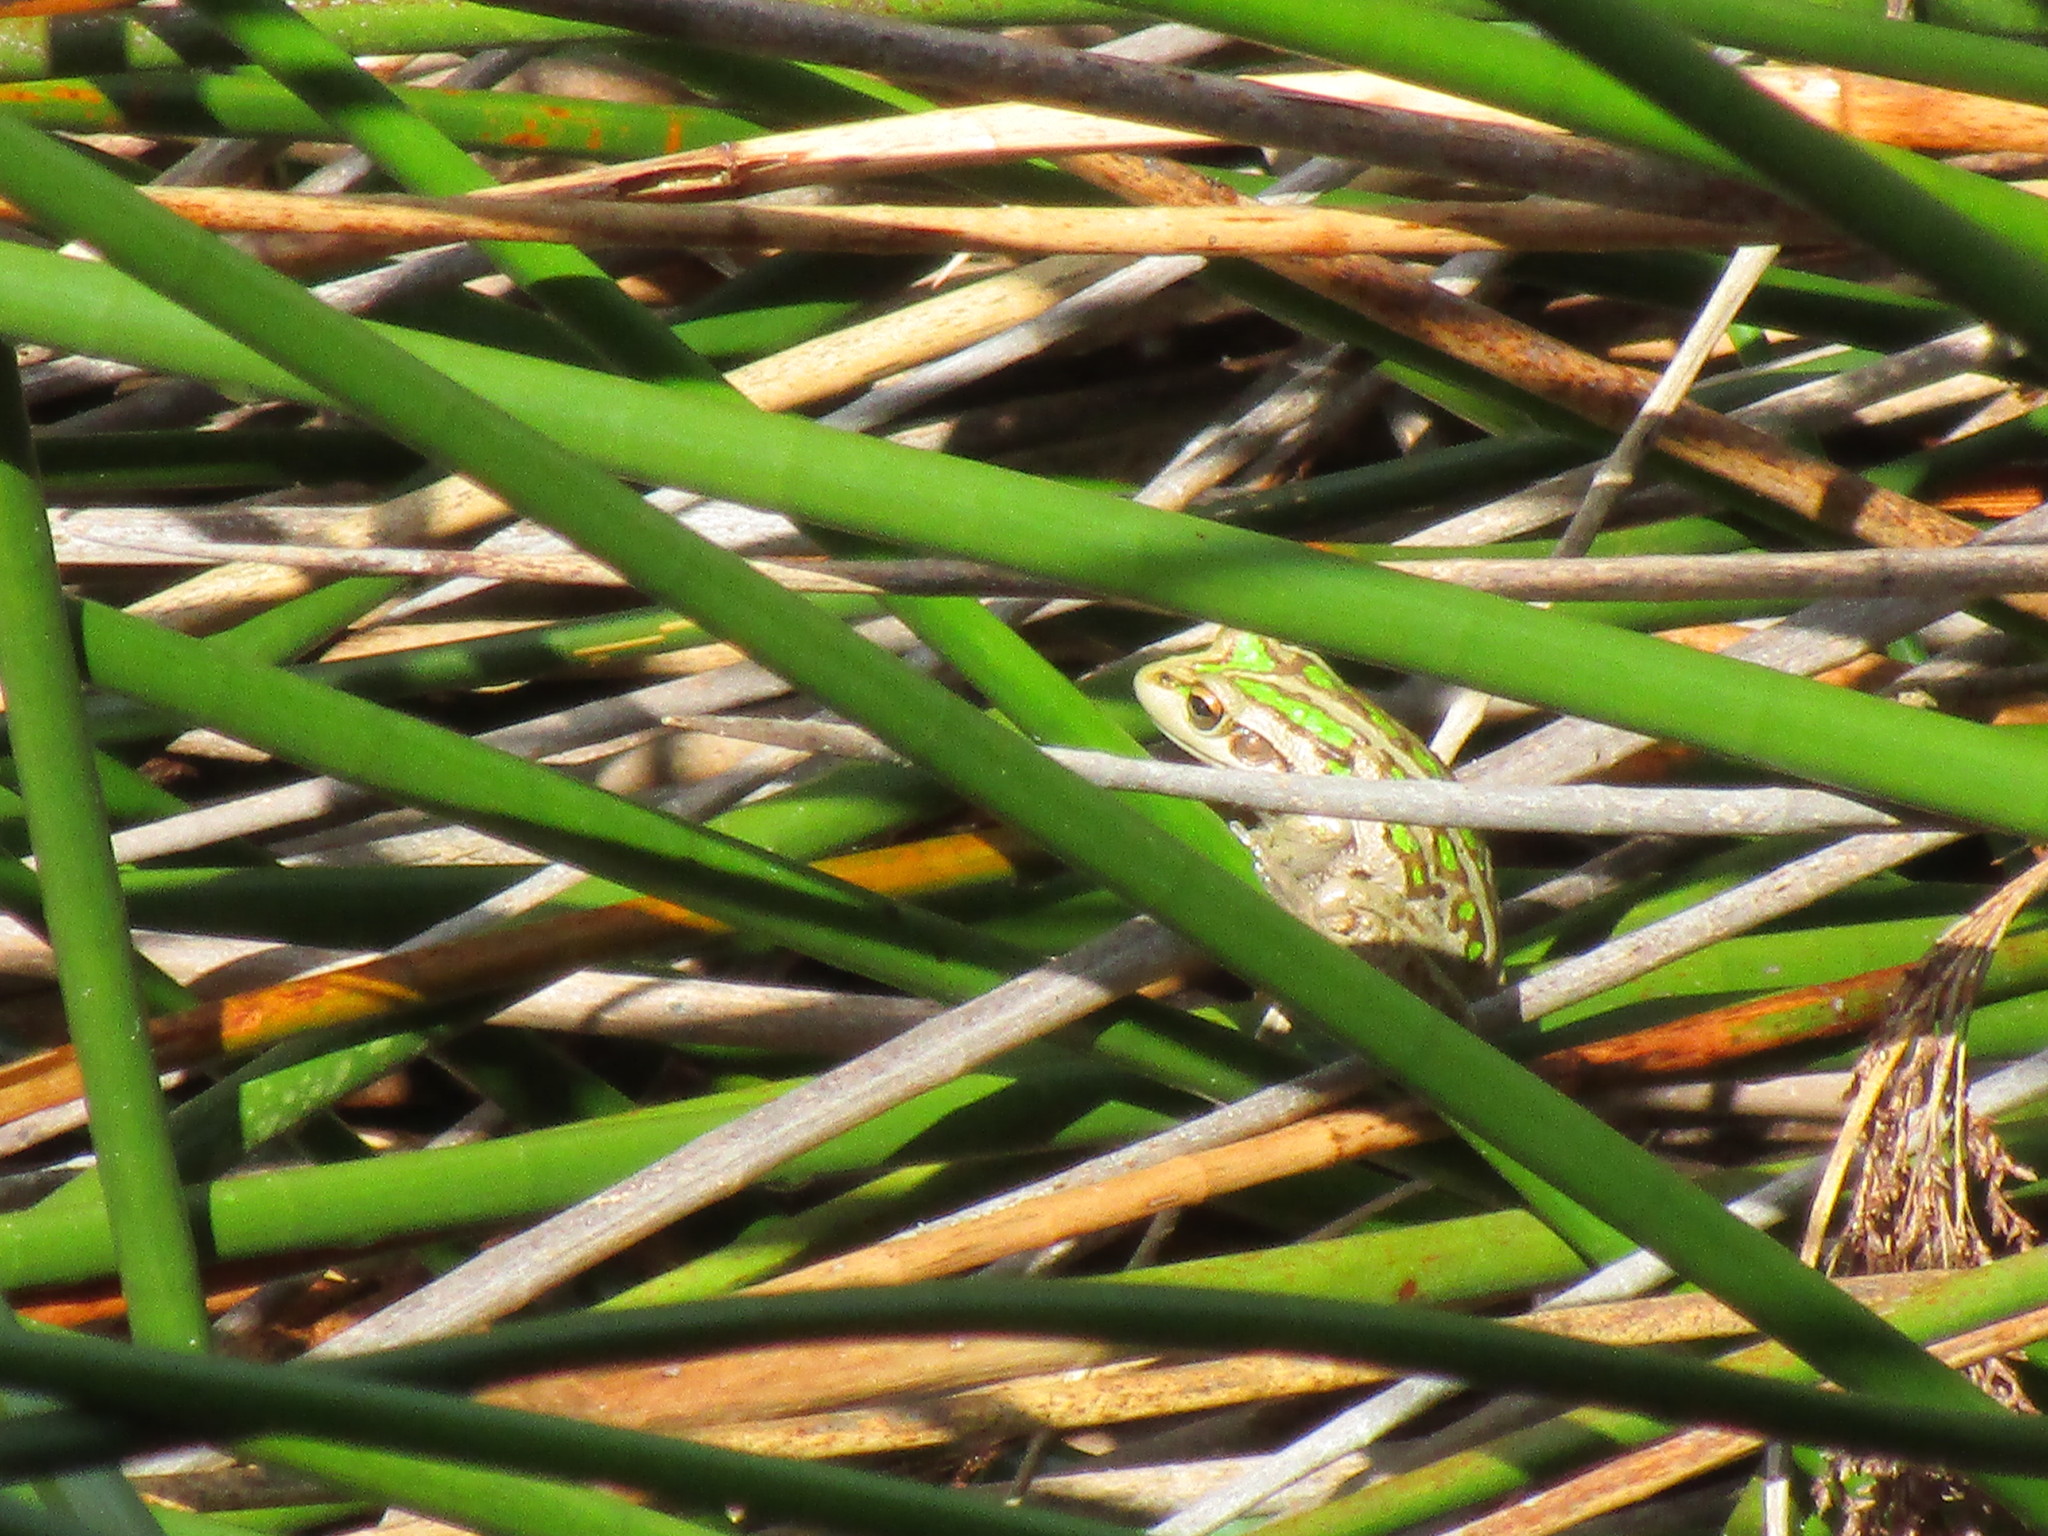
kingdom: Animalia
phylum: Chordata
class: Amphibia
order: Anura
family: Pelodryadidae
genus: Ranoidea
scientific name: Ranoidea moorei
